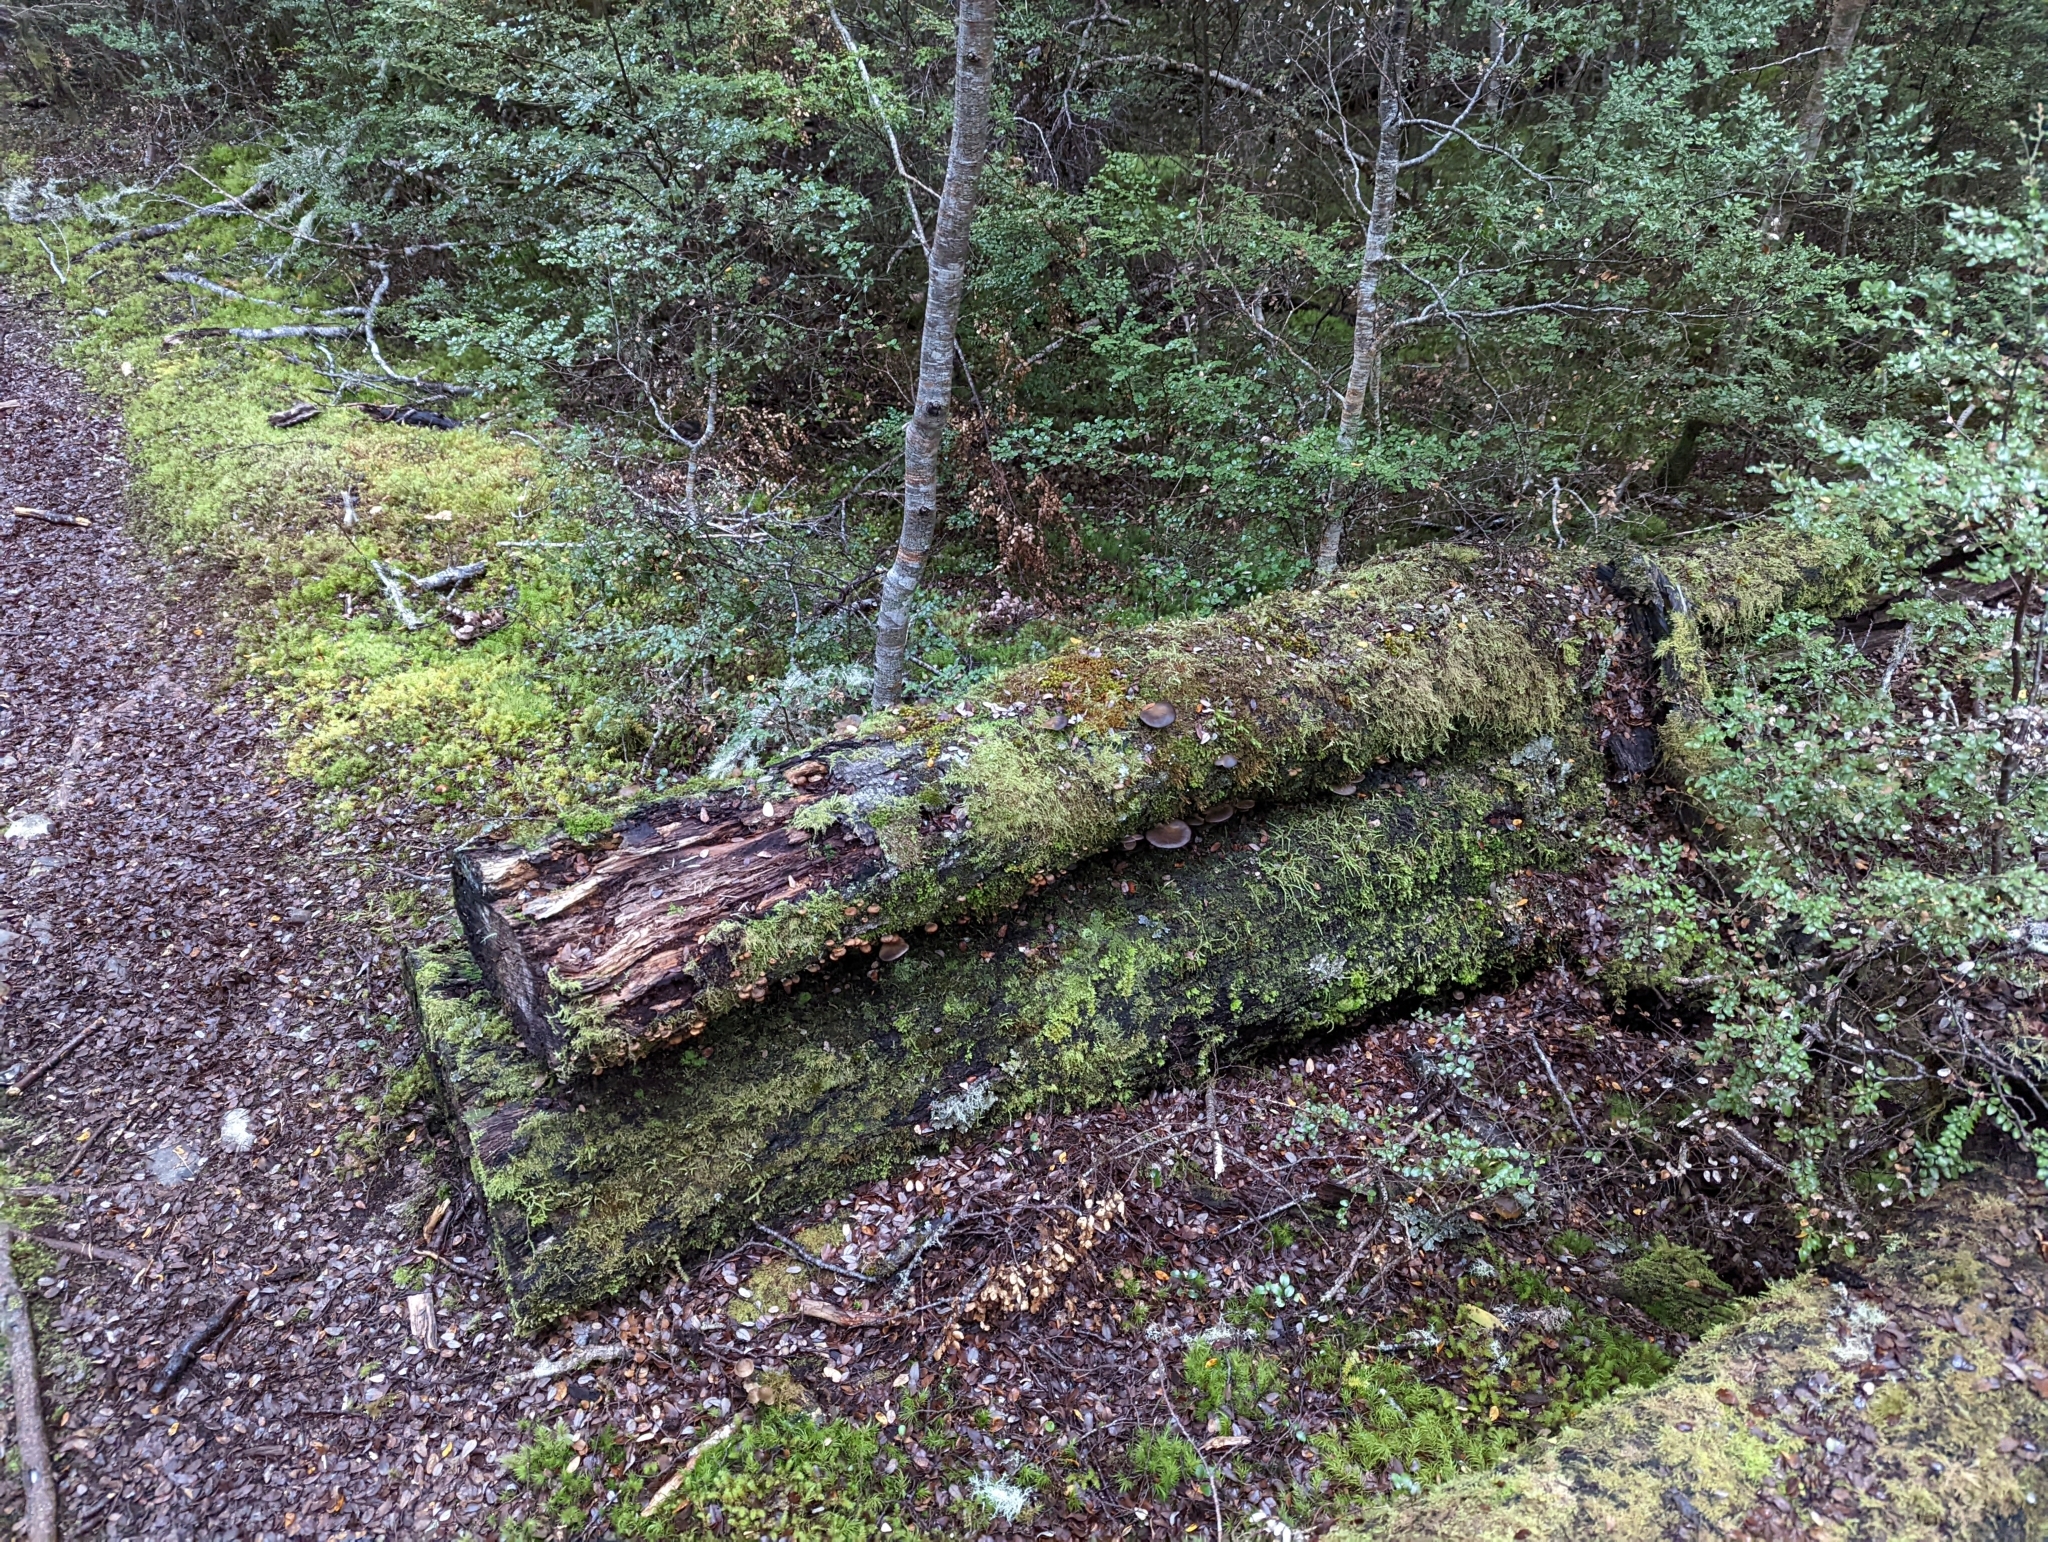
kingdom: Fungi
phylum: Basidiomycota
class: Agaricomycetes
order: Agaricales
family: Pleurotaceae
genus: Pleurotus
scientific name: Pleurotus purpureo-olivaceus
